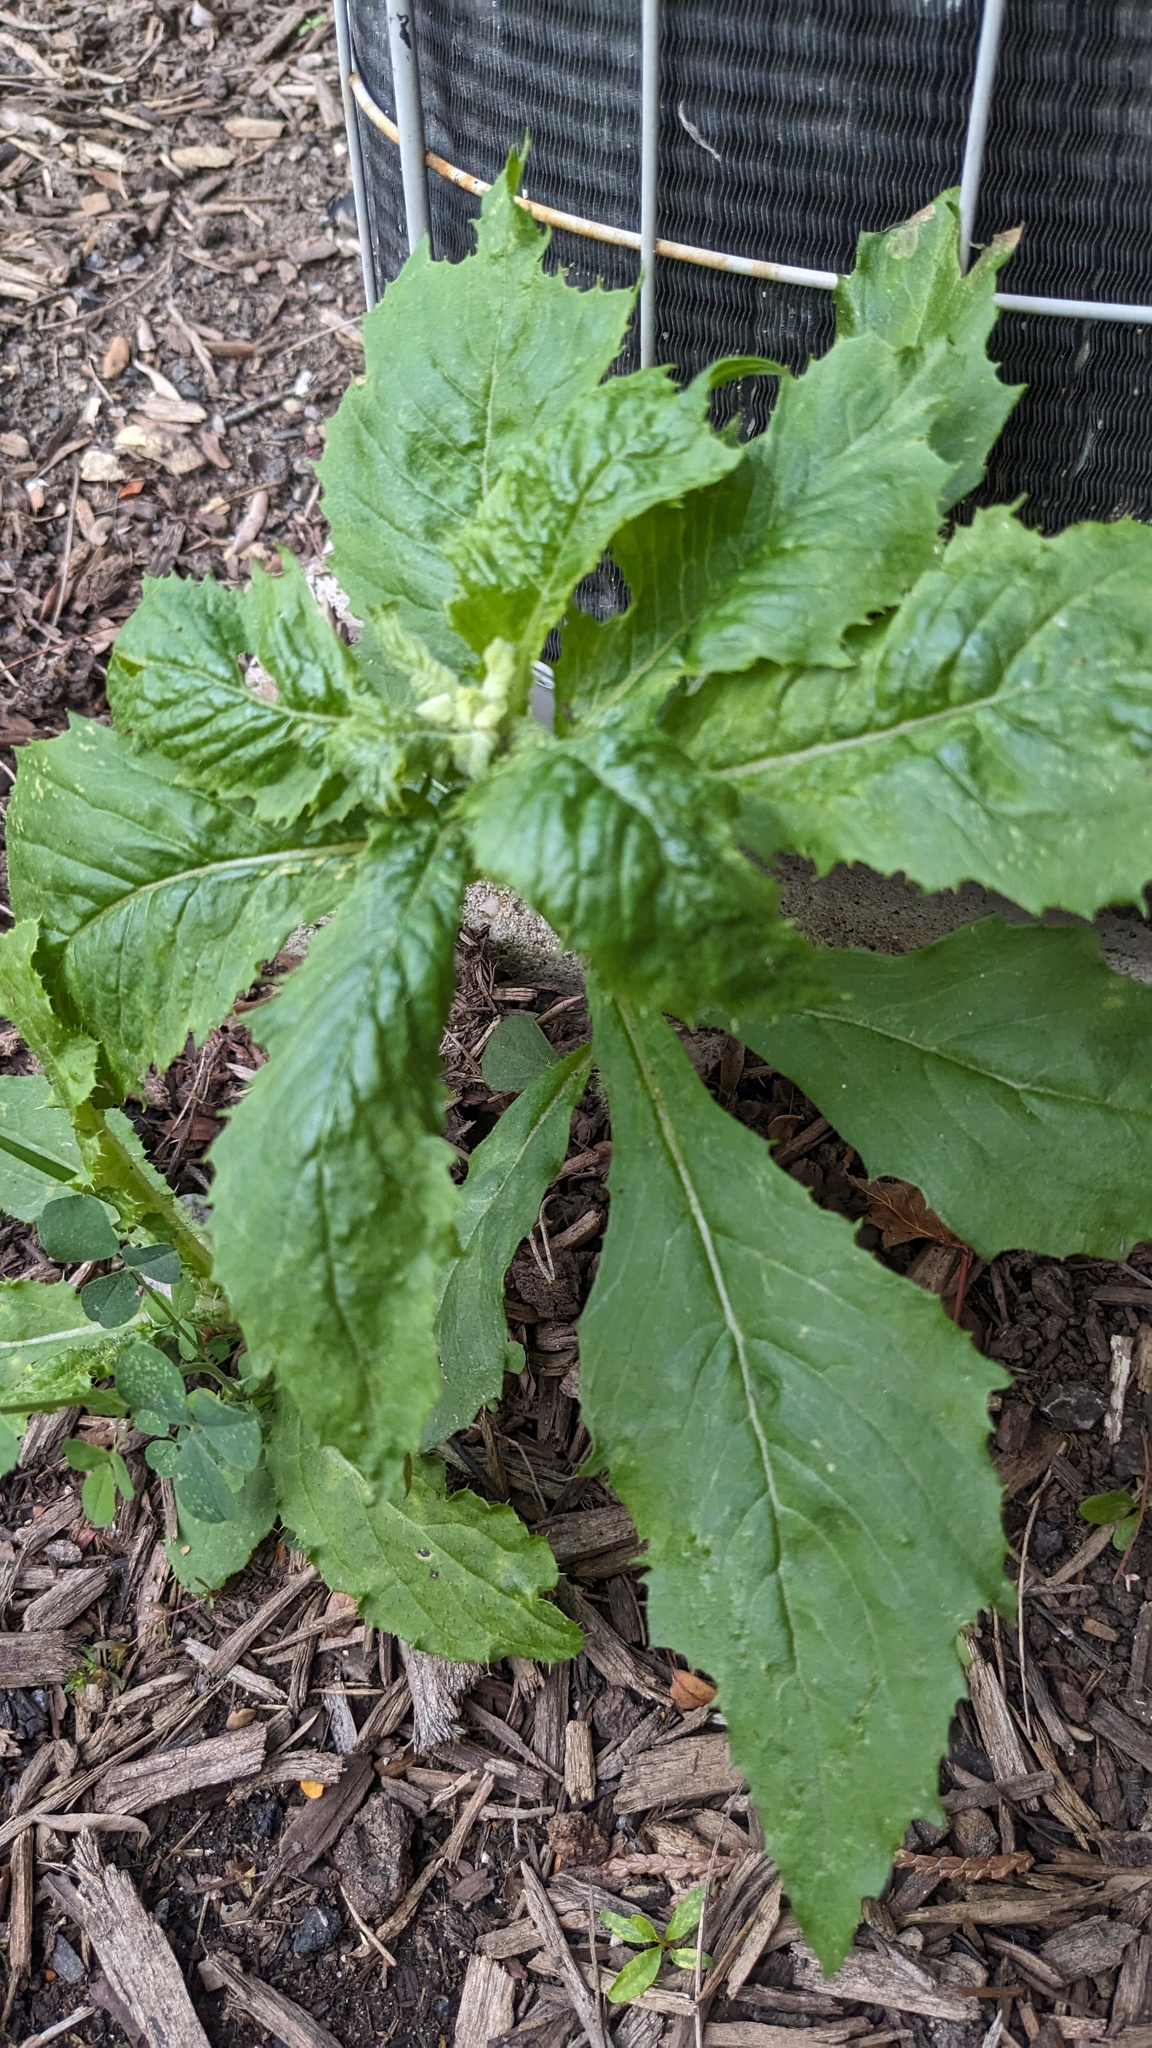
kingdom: Plantae
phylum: Tracheophyta
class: Magnoliopsida
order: Asterales
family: Asteraceae
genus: Erechtites
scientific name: Erechtites hieraciifolius
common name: American burnweed
